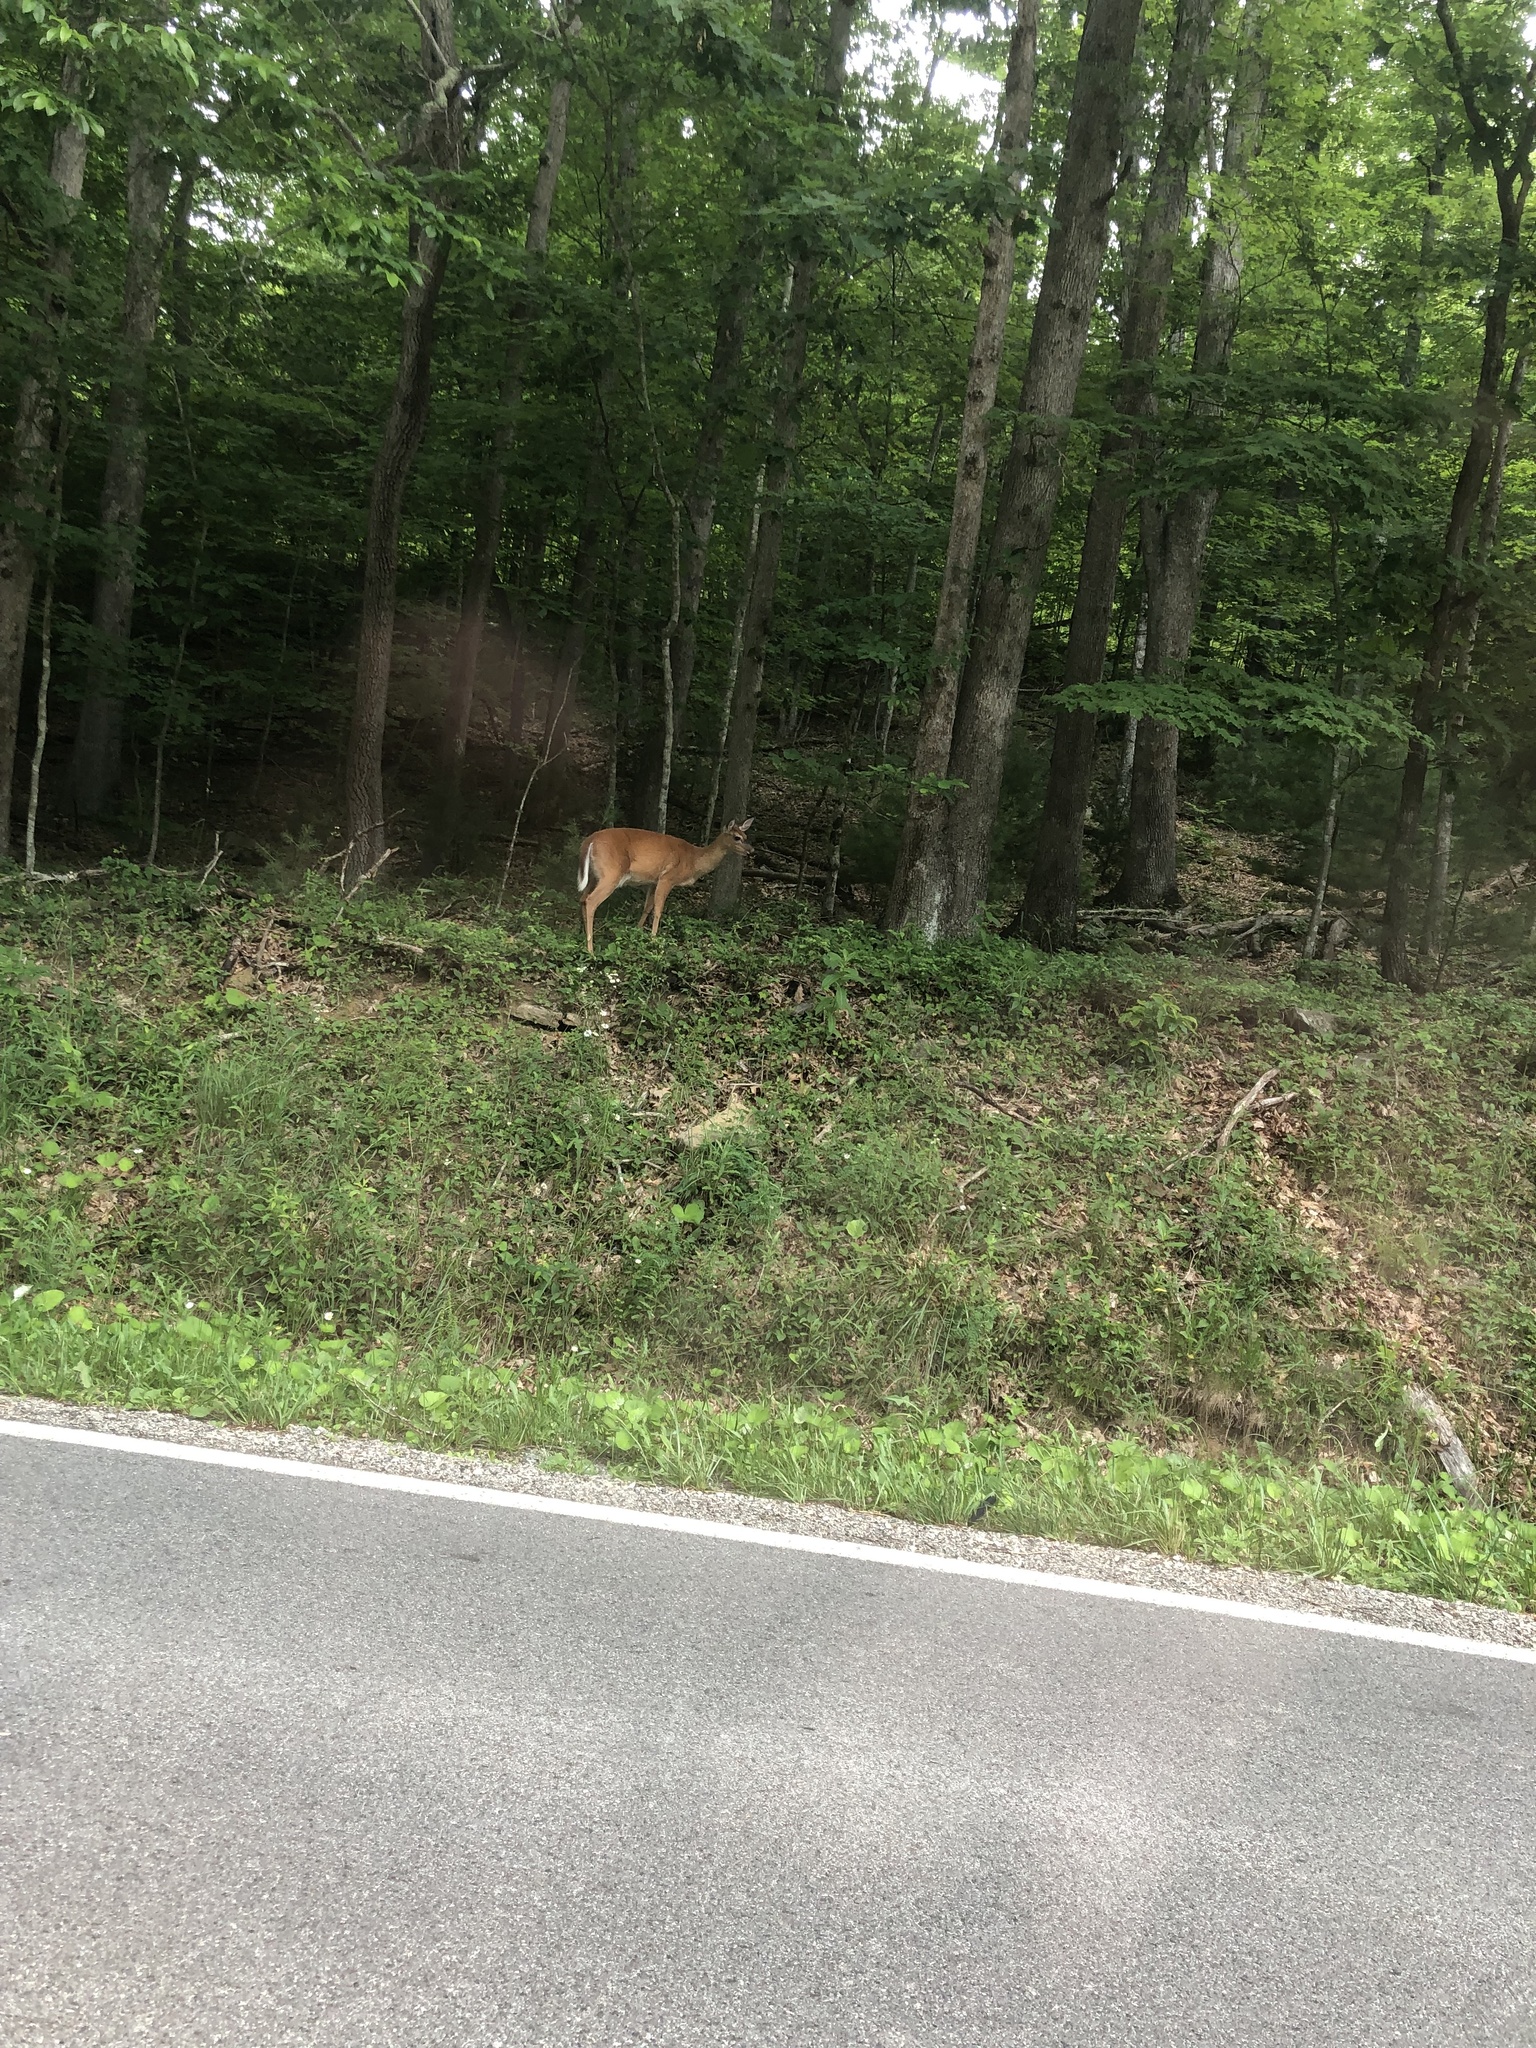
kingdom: Animalia
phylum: Chordata
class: Mammalia
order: Artiodactyla
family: Cervidae
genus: Odocoileus
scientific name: Odocoileus virginianus
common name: White-tailed deer
